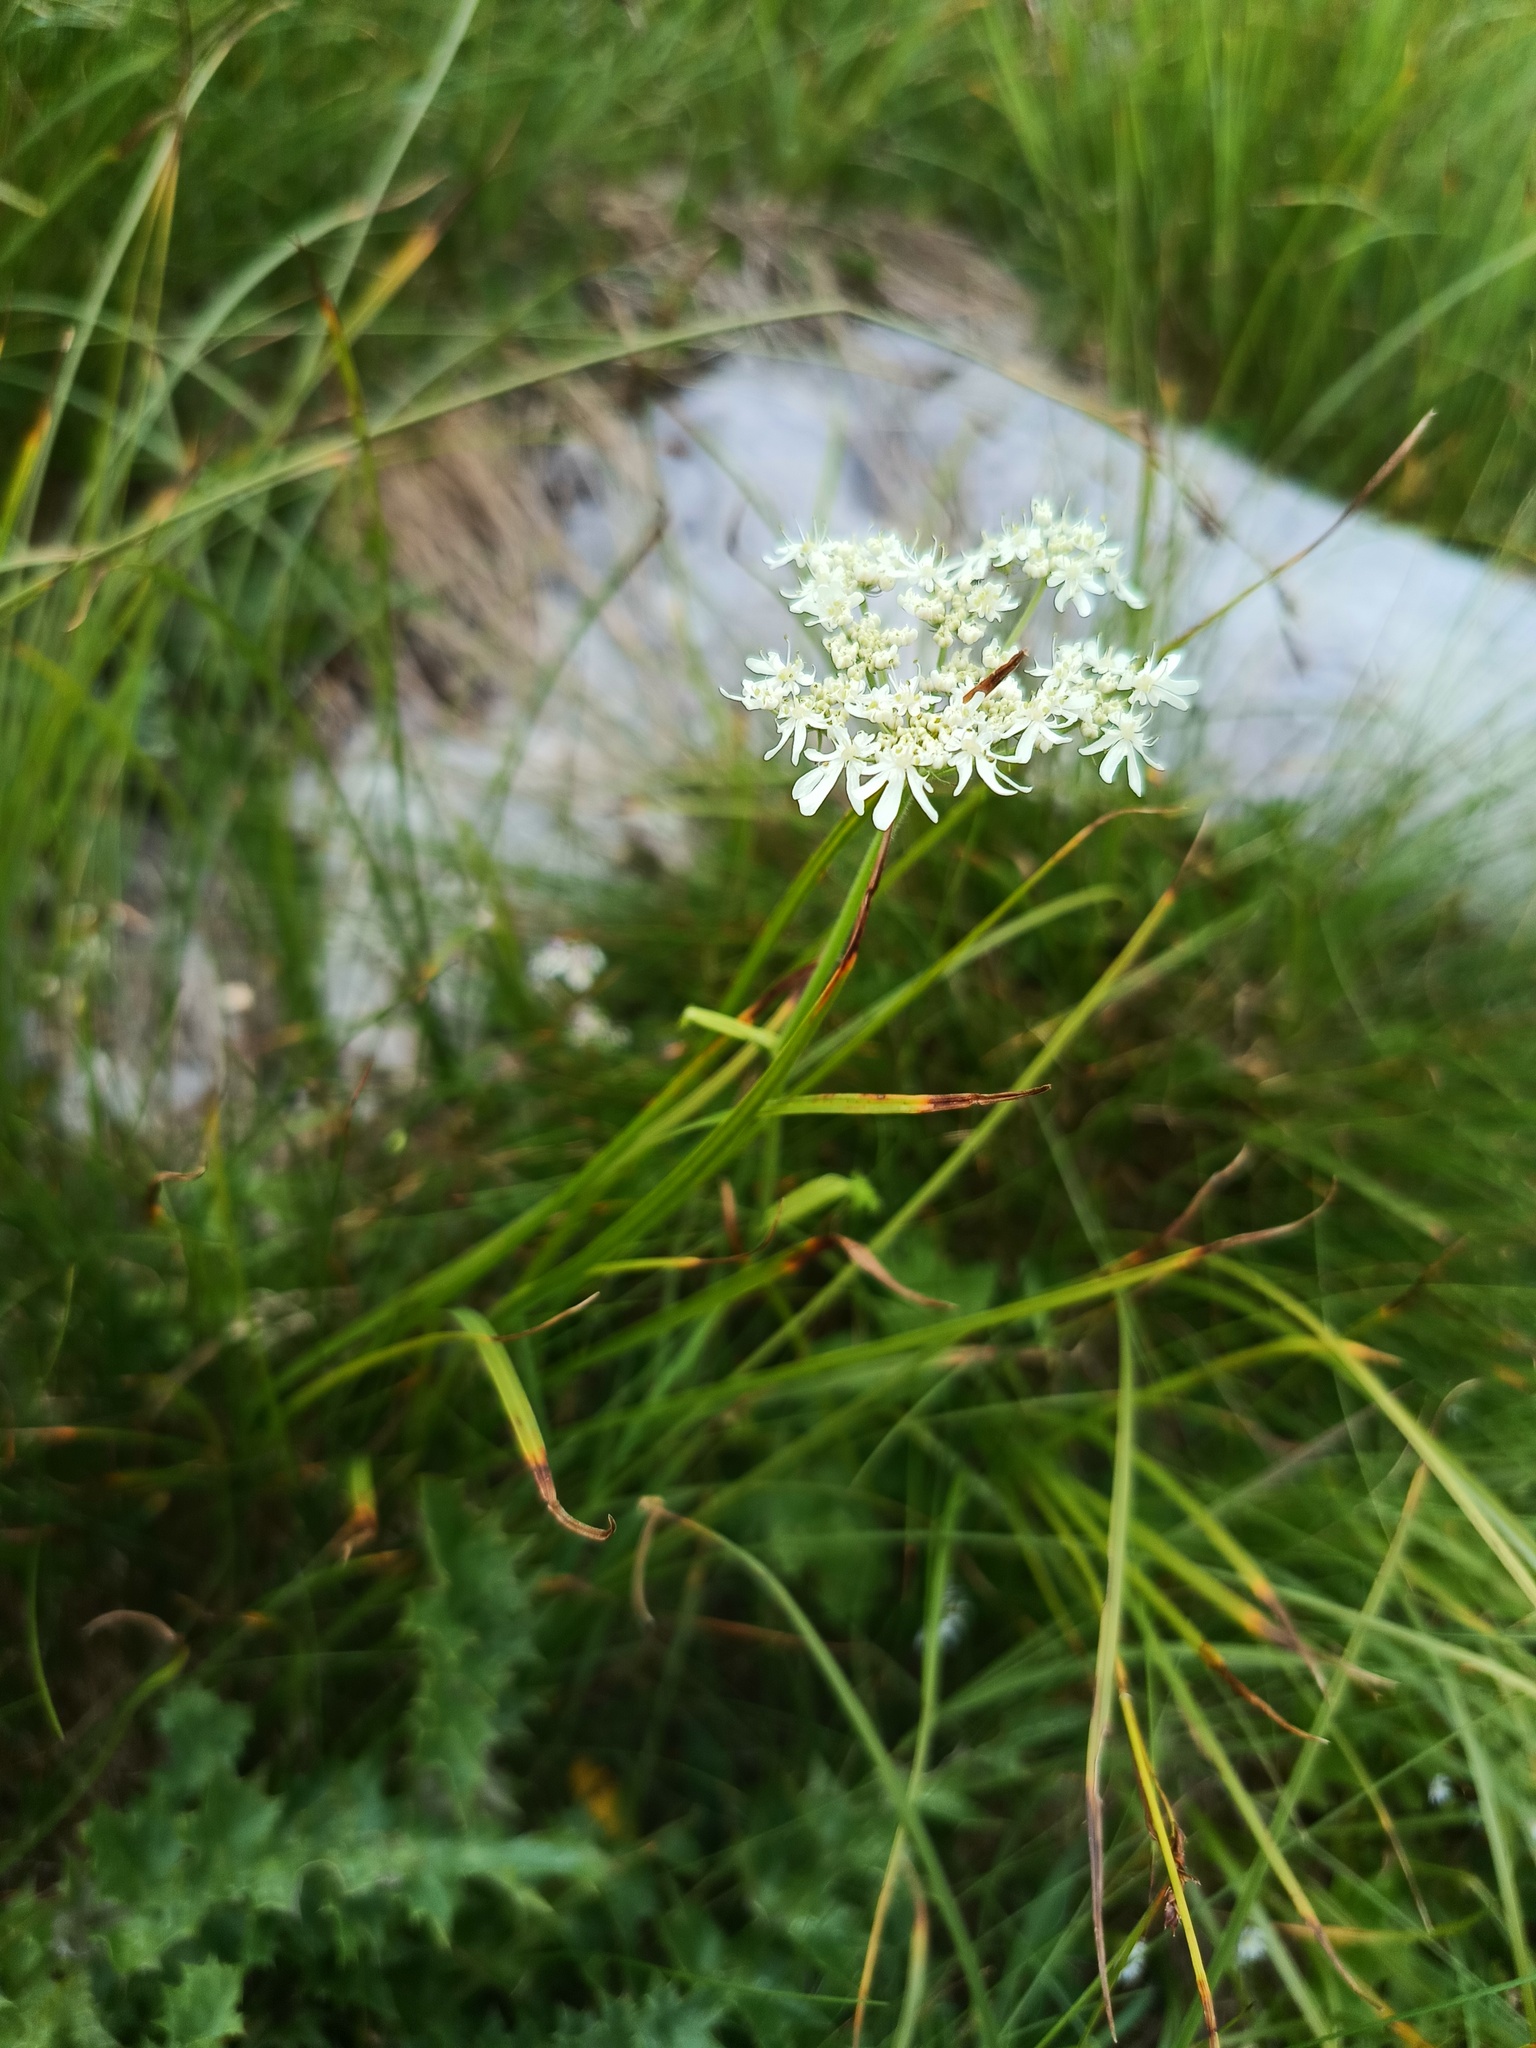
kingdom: Plantae
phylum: Tracheophyta
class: Magnoliopsida
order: Apiales
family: Apiaceae
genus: Heracleum
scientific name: Heracleum austriacum
